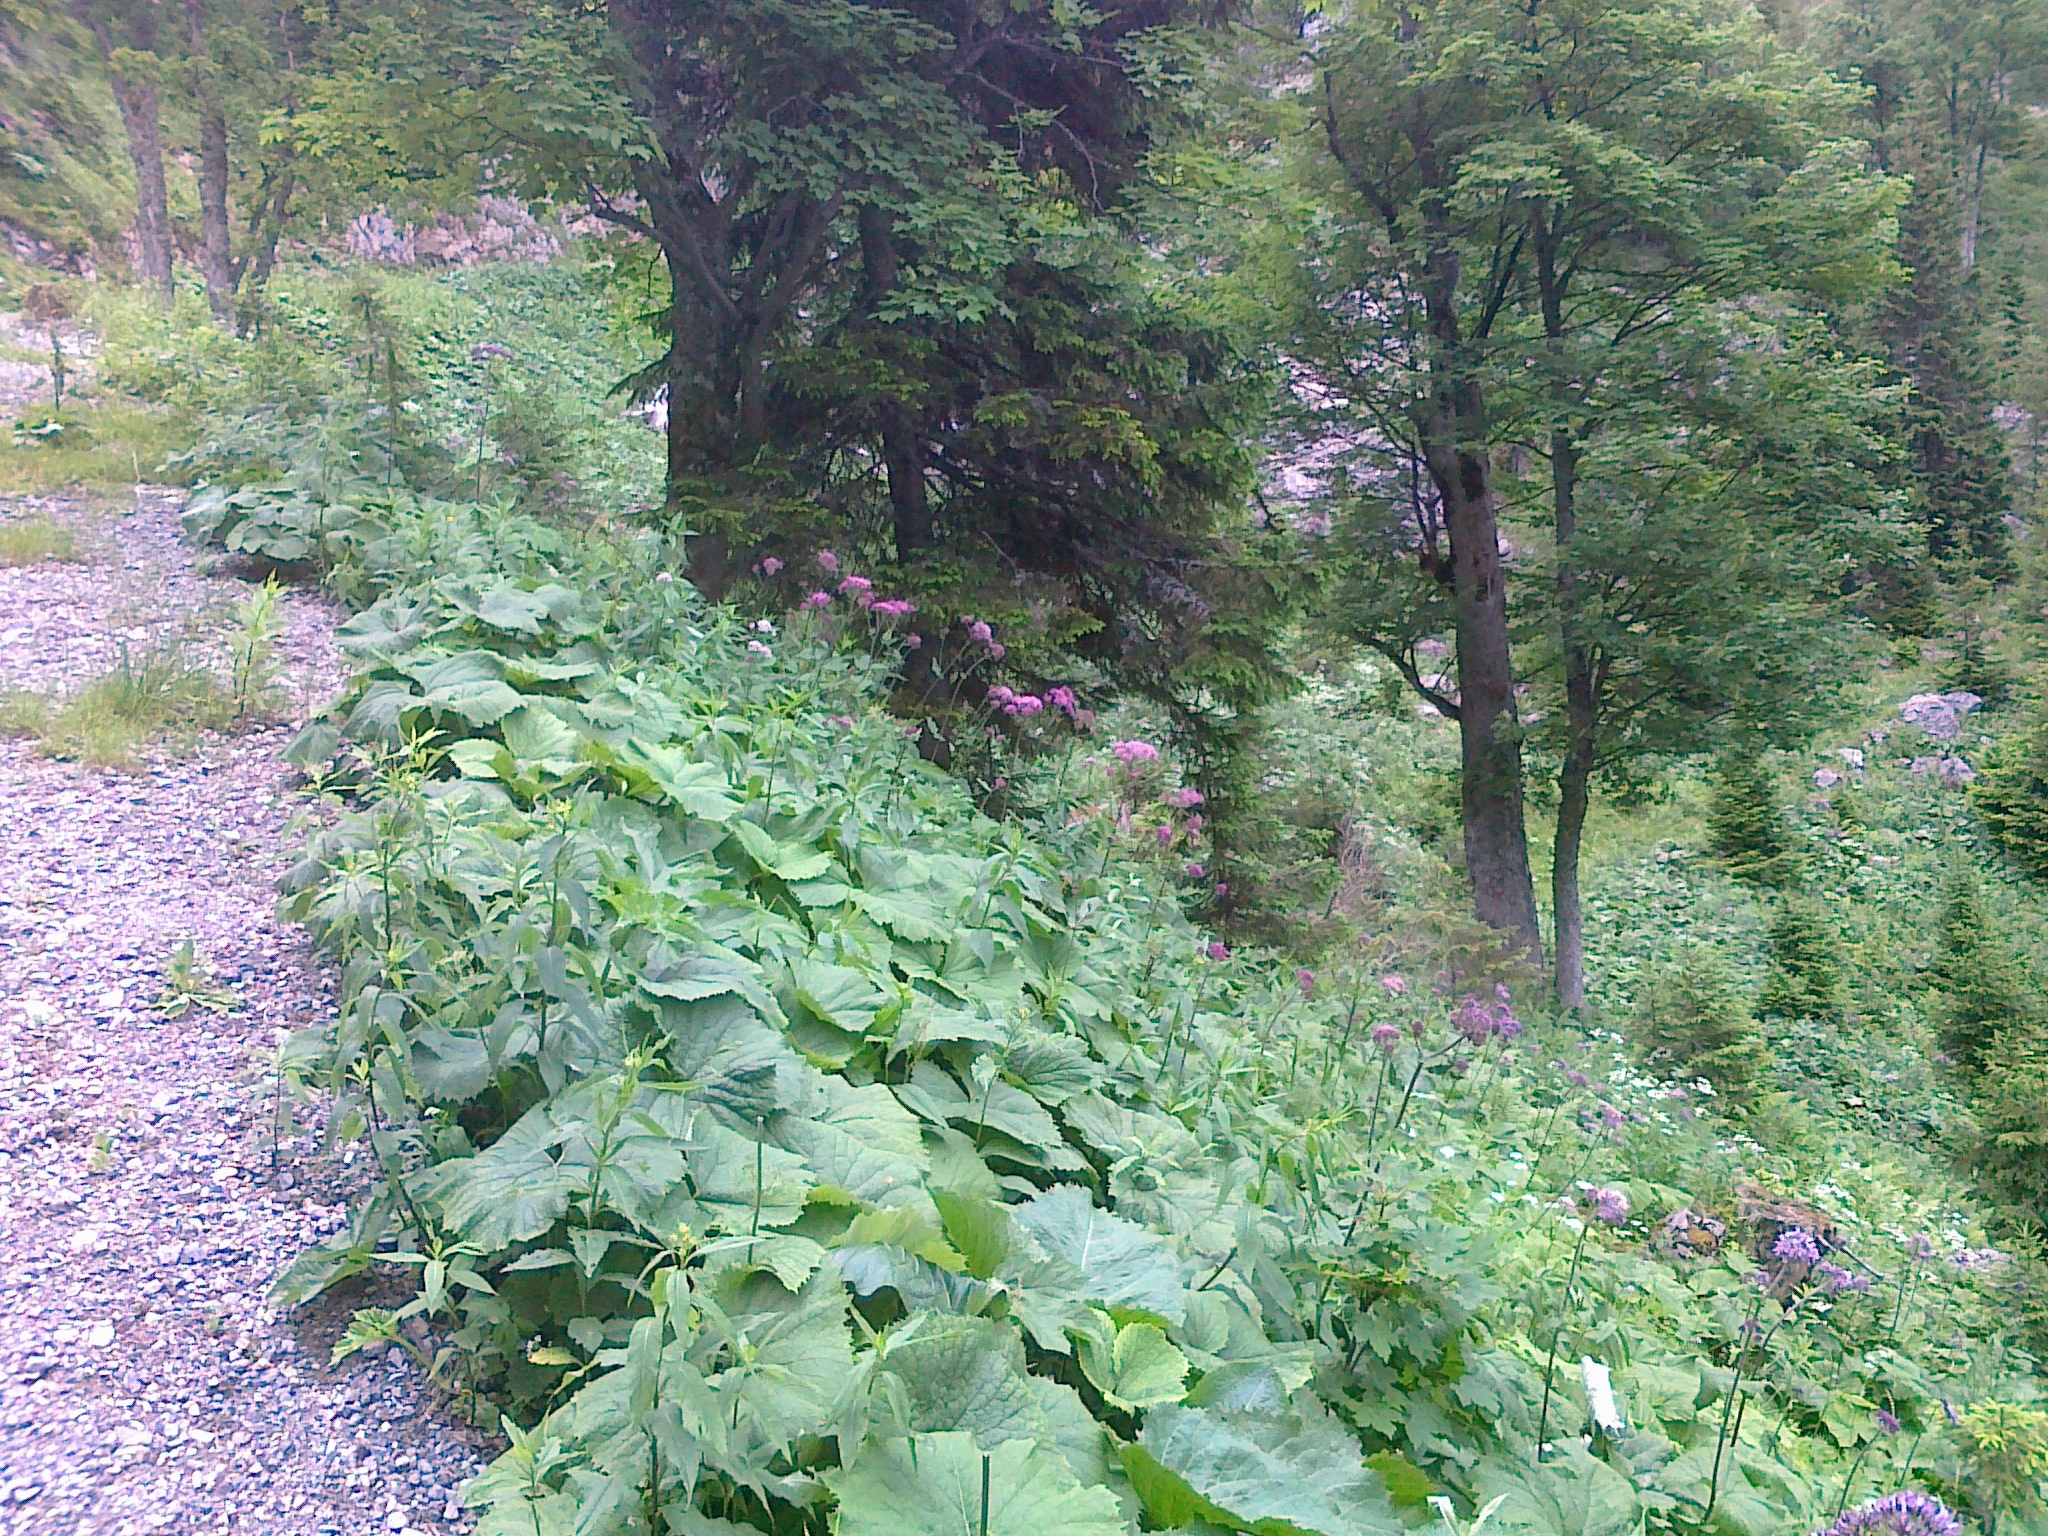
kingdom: Plantae
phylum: Tracheophyta
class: Magnoliopsida
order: Asterales
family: Asteraceae
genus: Adenostyles
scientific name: Adenostyles alliariae
